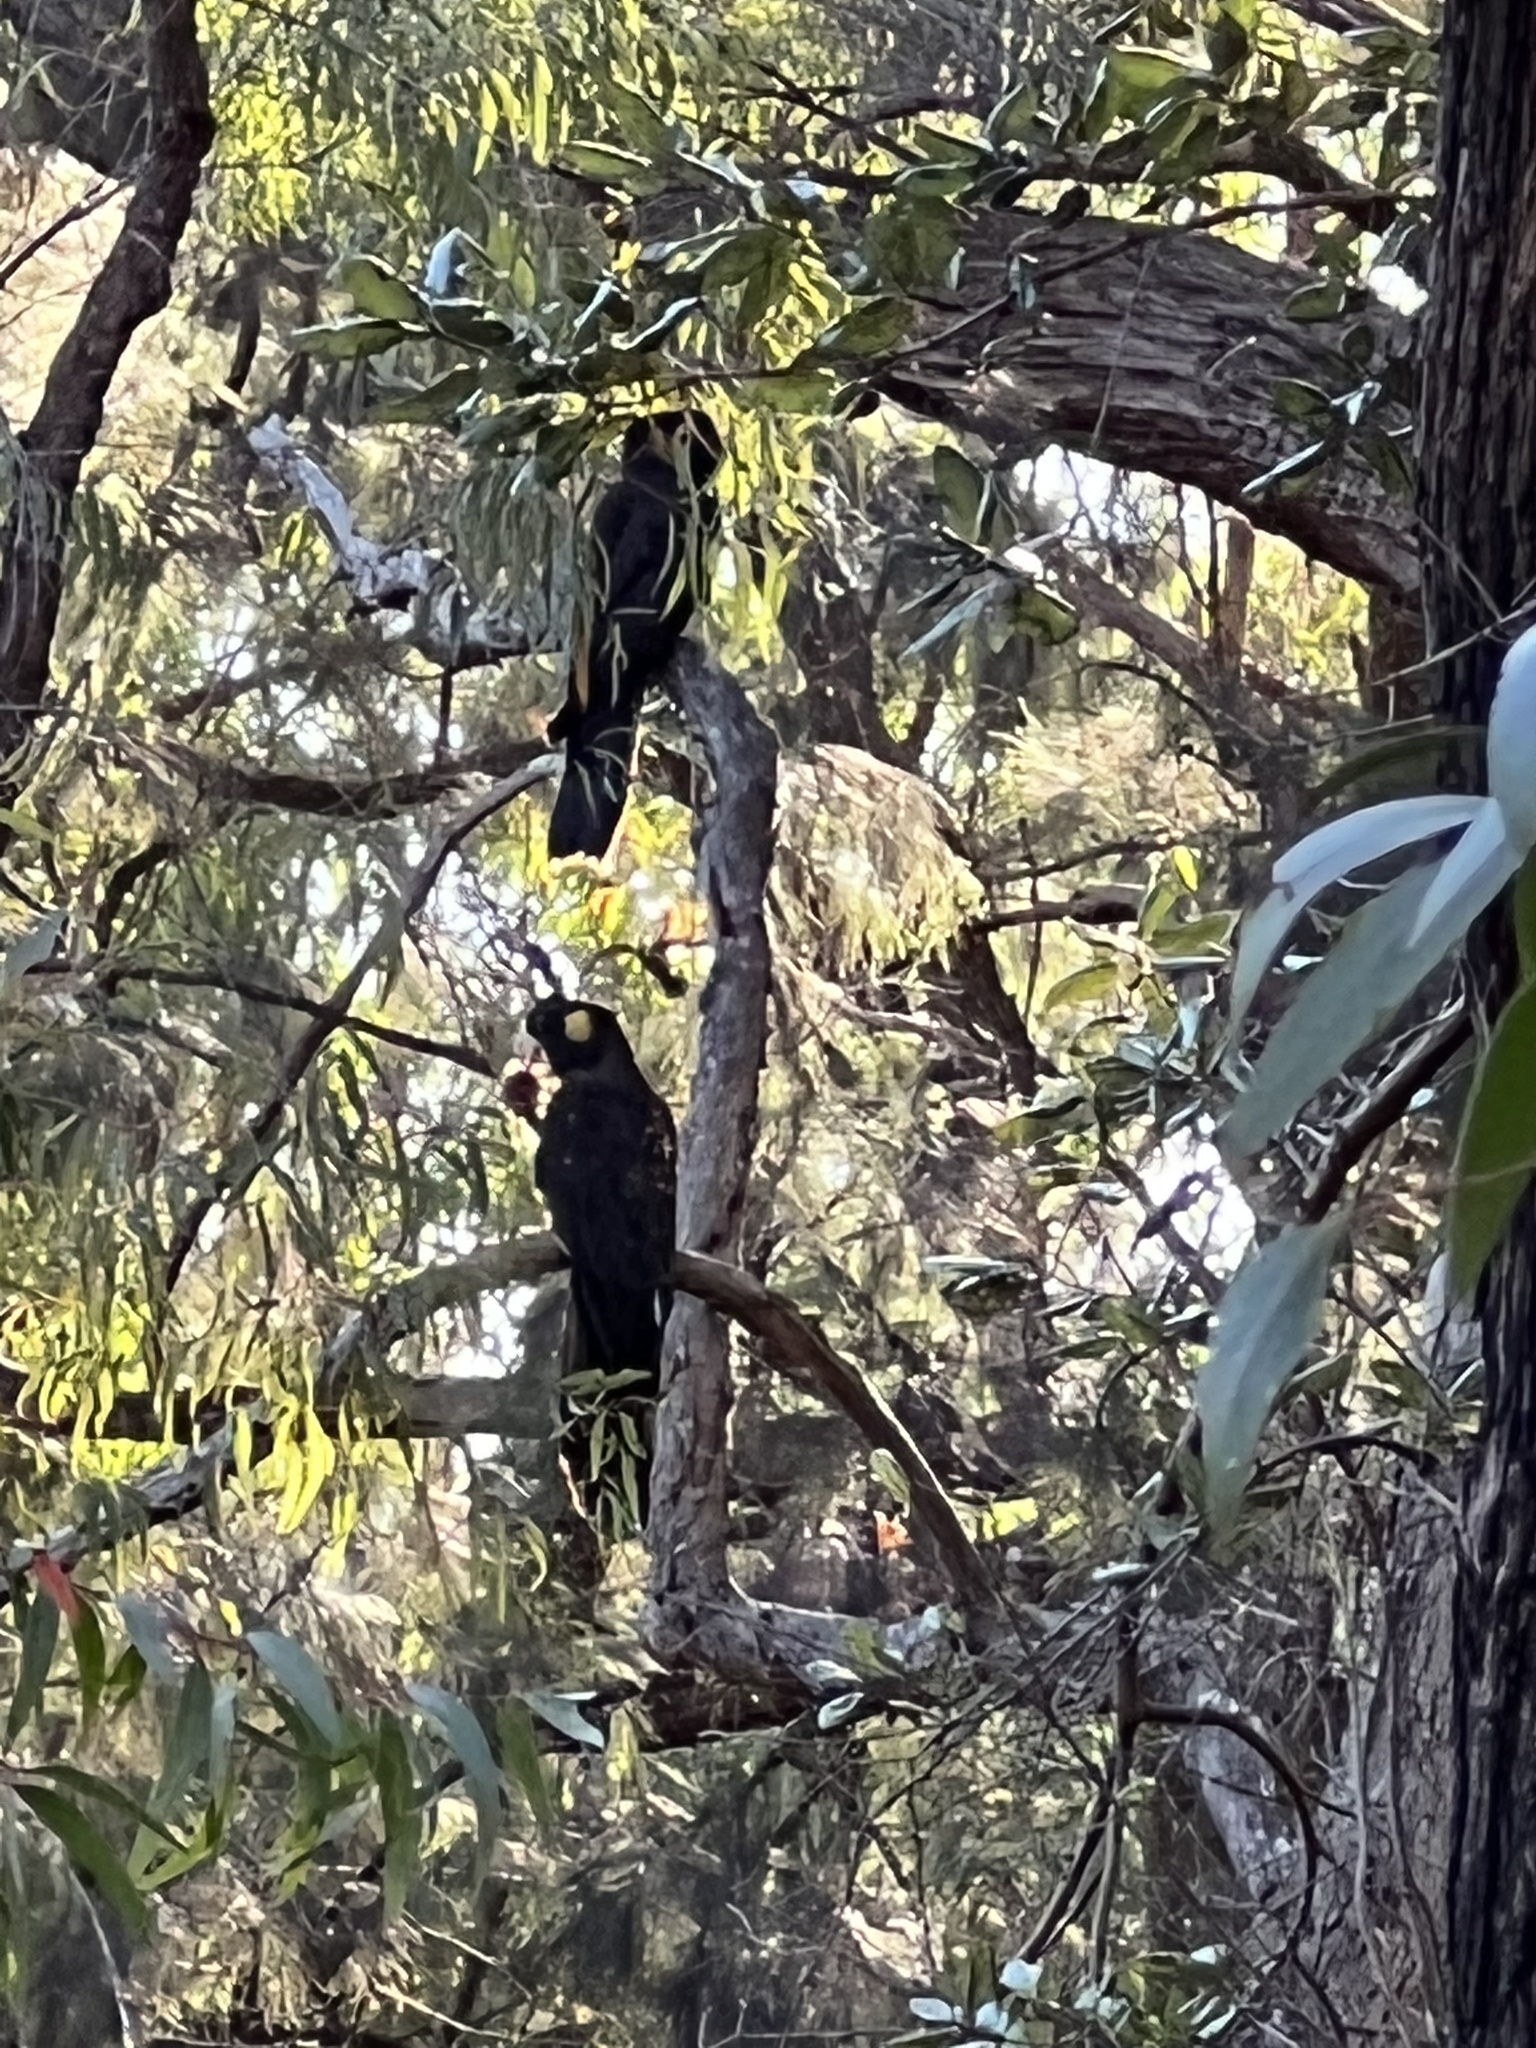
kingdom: Animalia
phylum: Chordata
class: Aves
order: Psittaciformes
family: Cacatuidae
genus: Zanda
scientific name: Zanda funerea
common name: Yellow-tailed black-cockatoo
